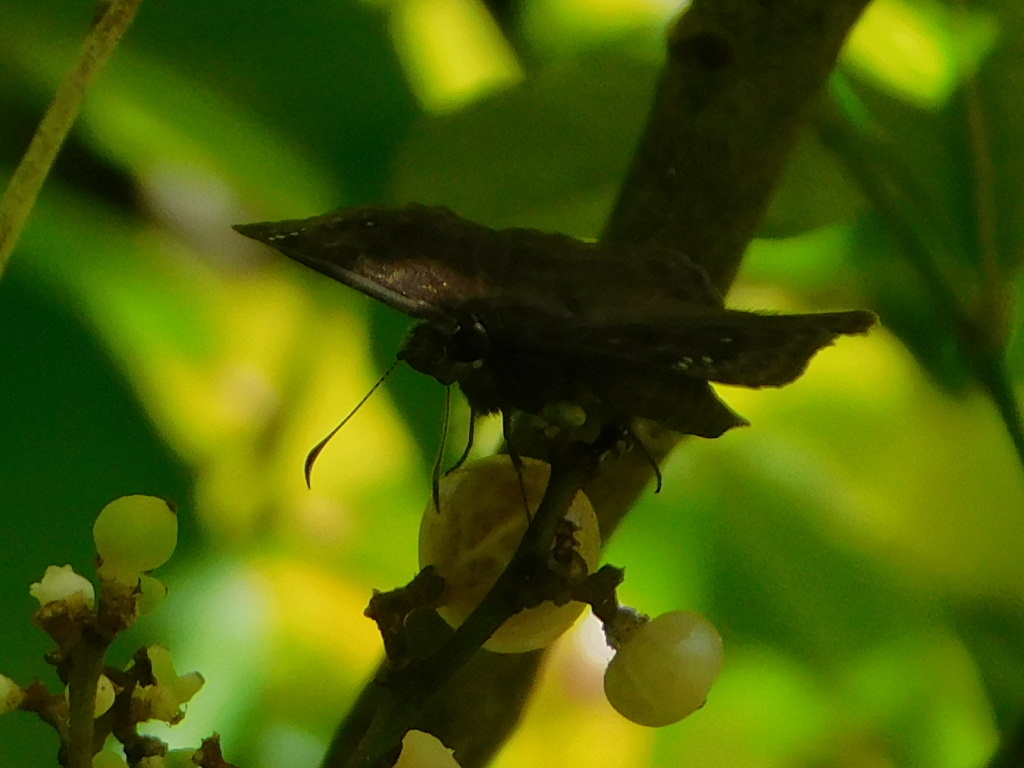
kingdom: Animalia
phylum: Arthropoda
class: Insecta
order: Lepidoptera
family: Hesperiidae
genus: Erynnis
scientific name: Erynnis horatius
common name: Horace's duskywing
